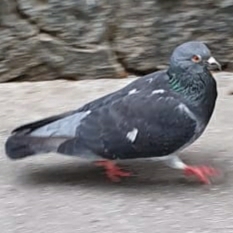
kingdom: Animalia
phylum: Chordata
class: Aves
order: Columbiformes
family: Columbidae
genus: Columba
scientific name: Columba livia
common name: Rock pigeon
